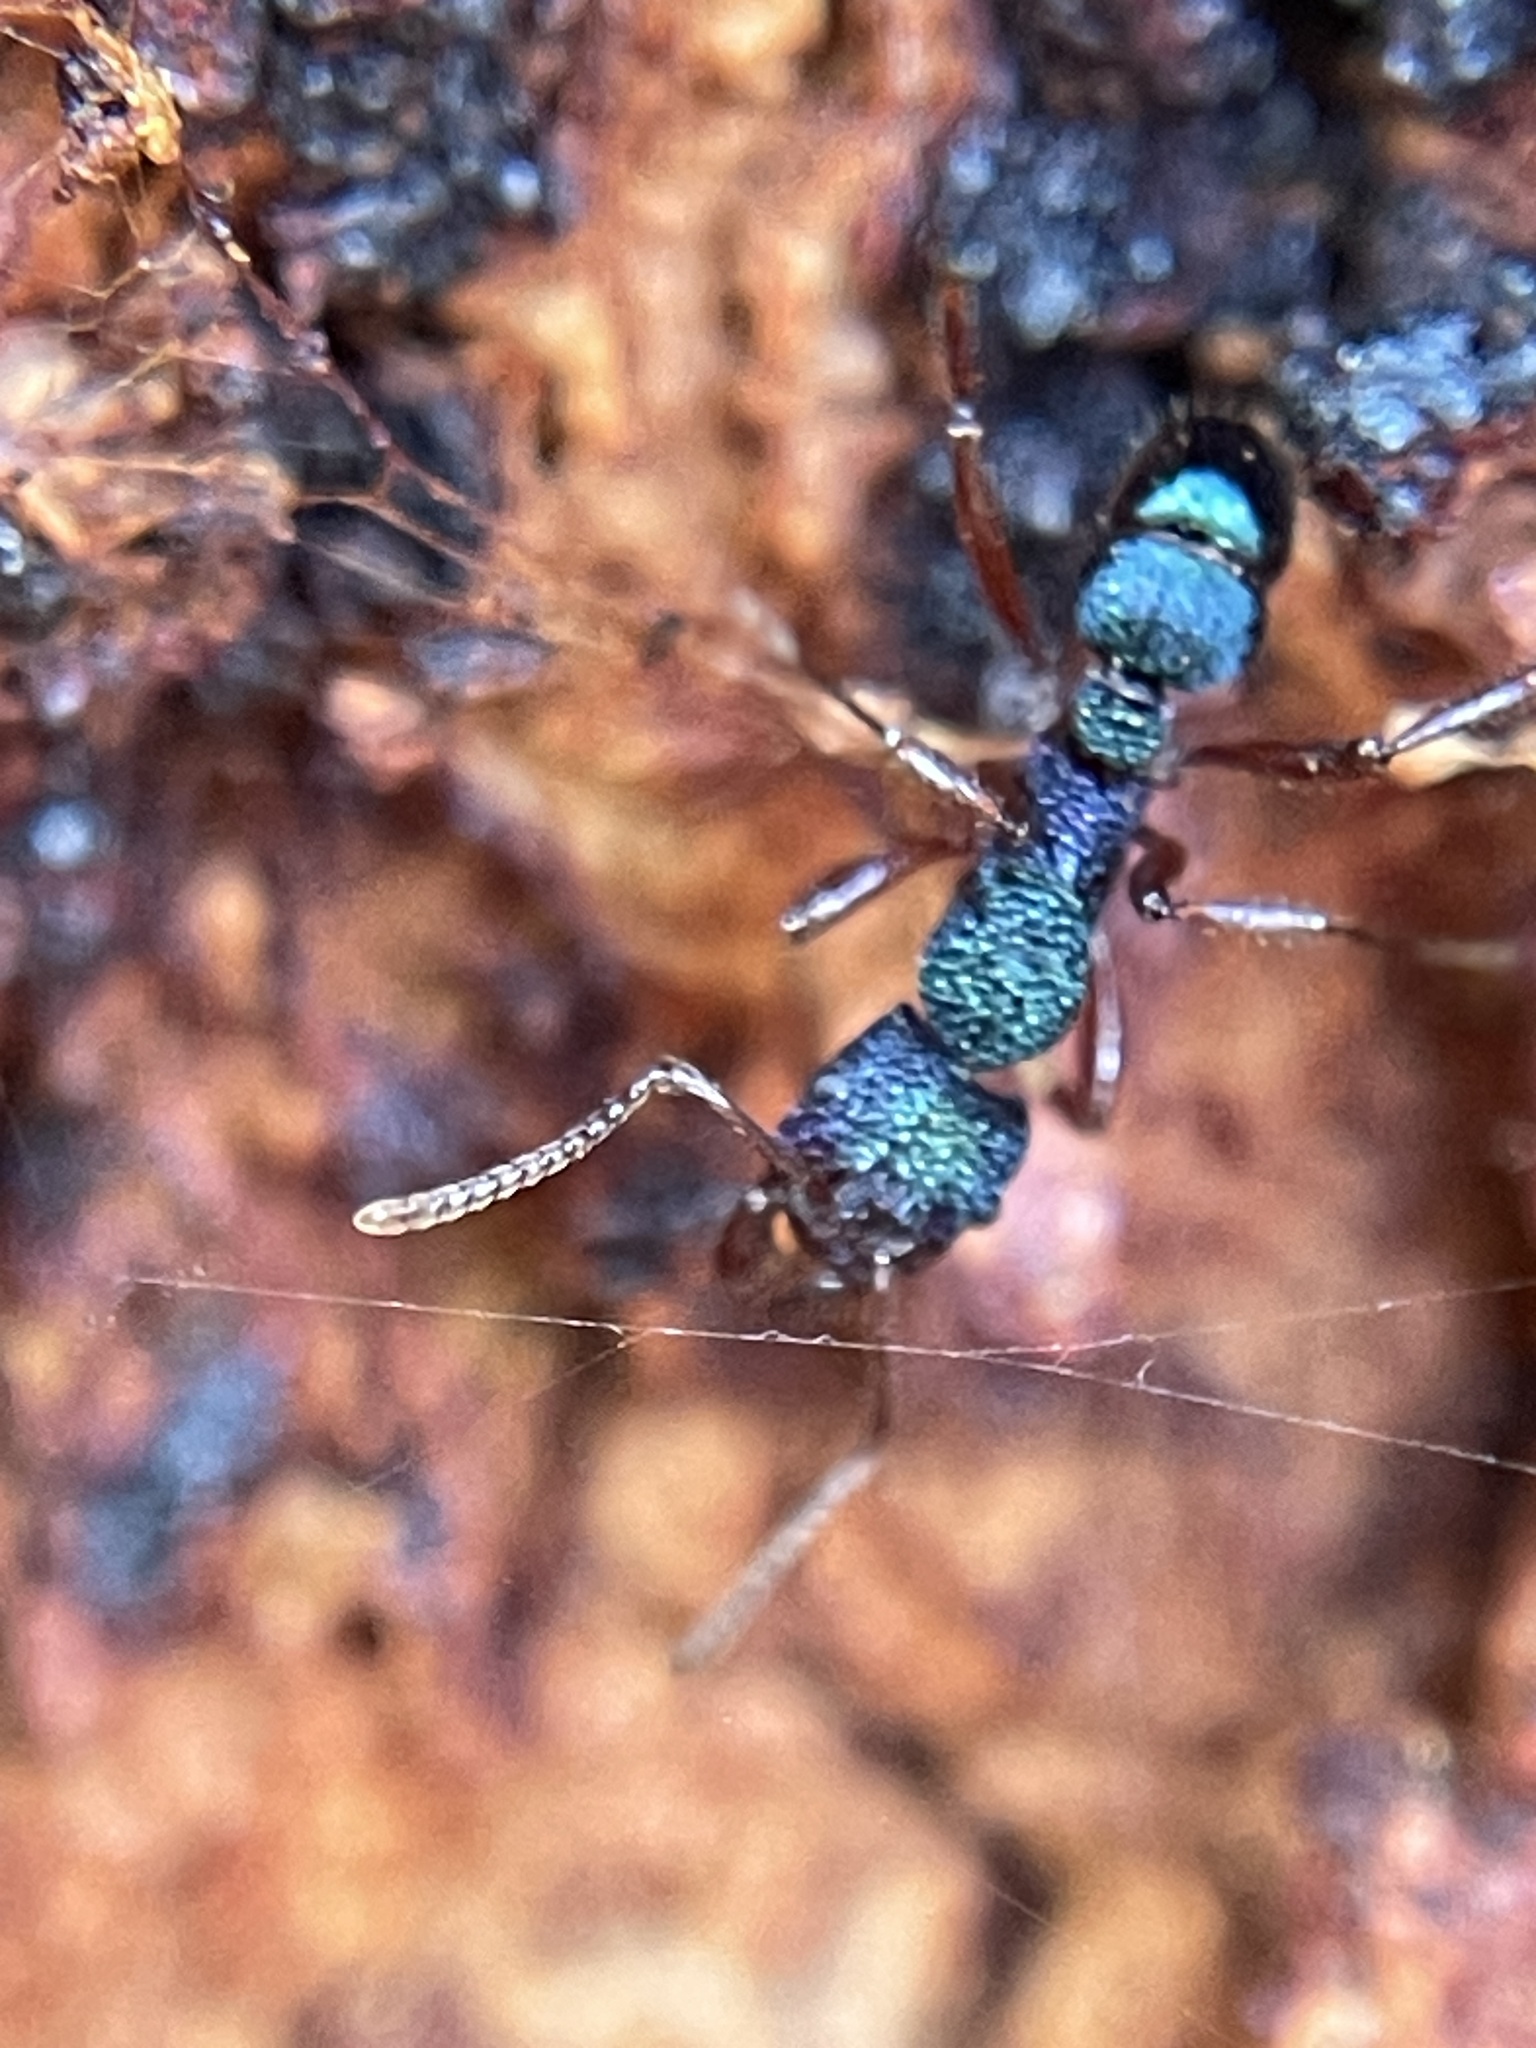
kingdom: Animalia
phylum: Arthropoda
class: Insecta
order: Hymenoptera
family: Formicidae
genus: Rhytidoponera
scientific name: Rhytidoponera aspera
